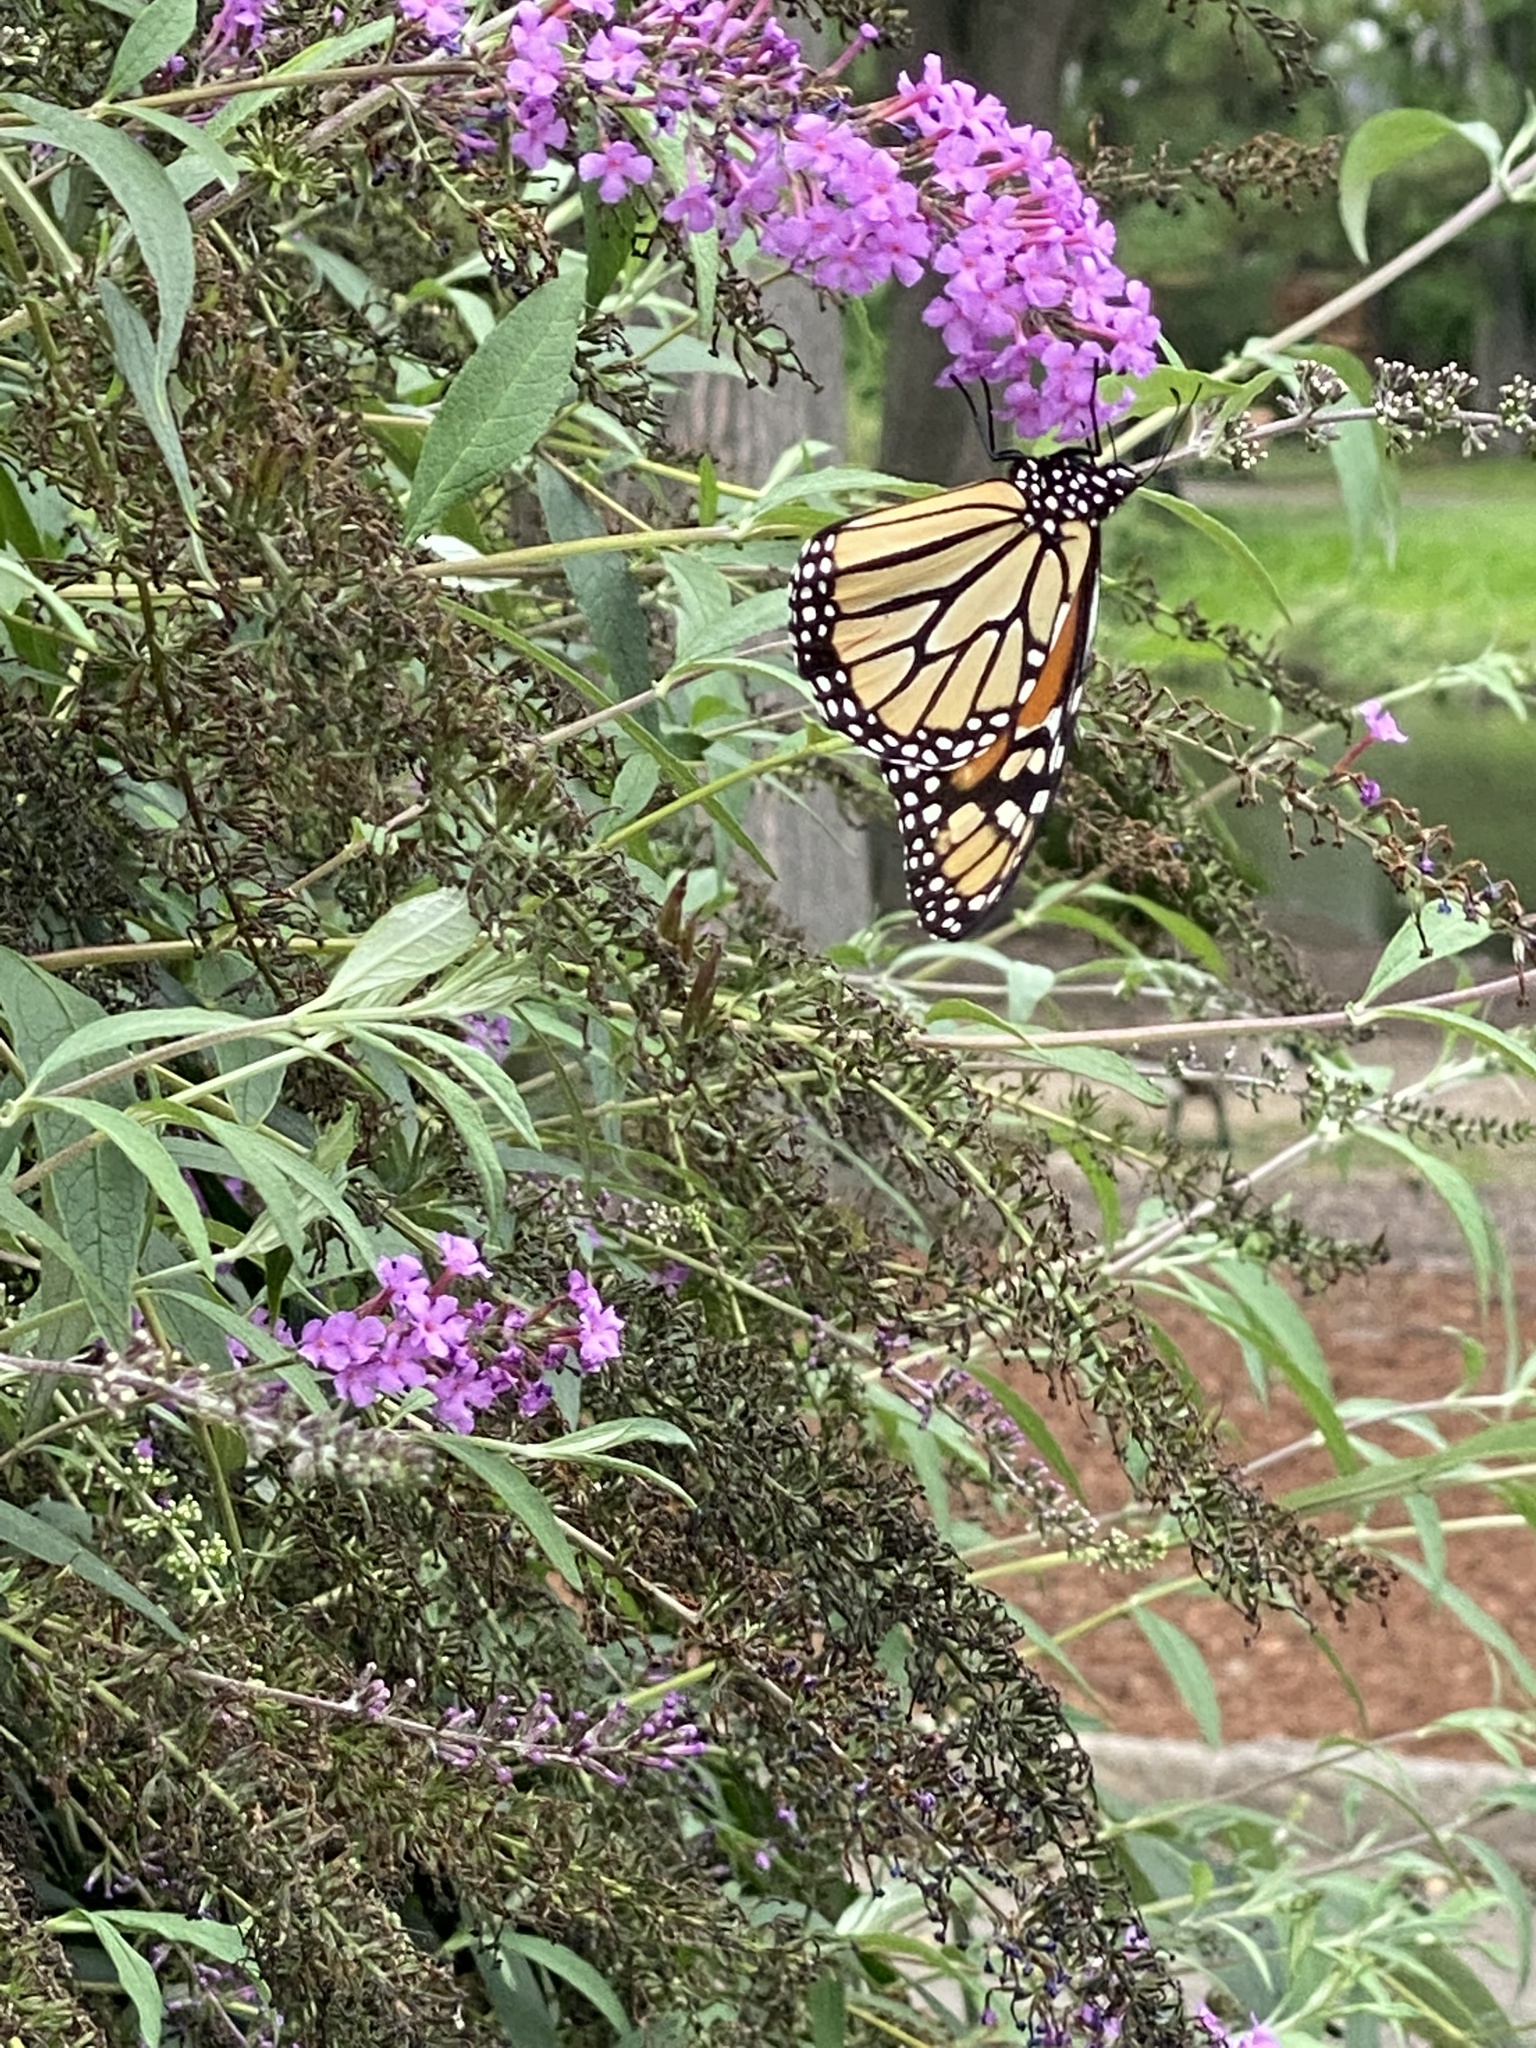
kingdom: Animalia
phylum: Arthropoda
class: Insecta
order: Lepidoptera
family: Nymphalidae
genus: Danaus
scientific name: Danaus plexippus
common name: Monarch
